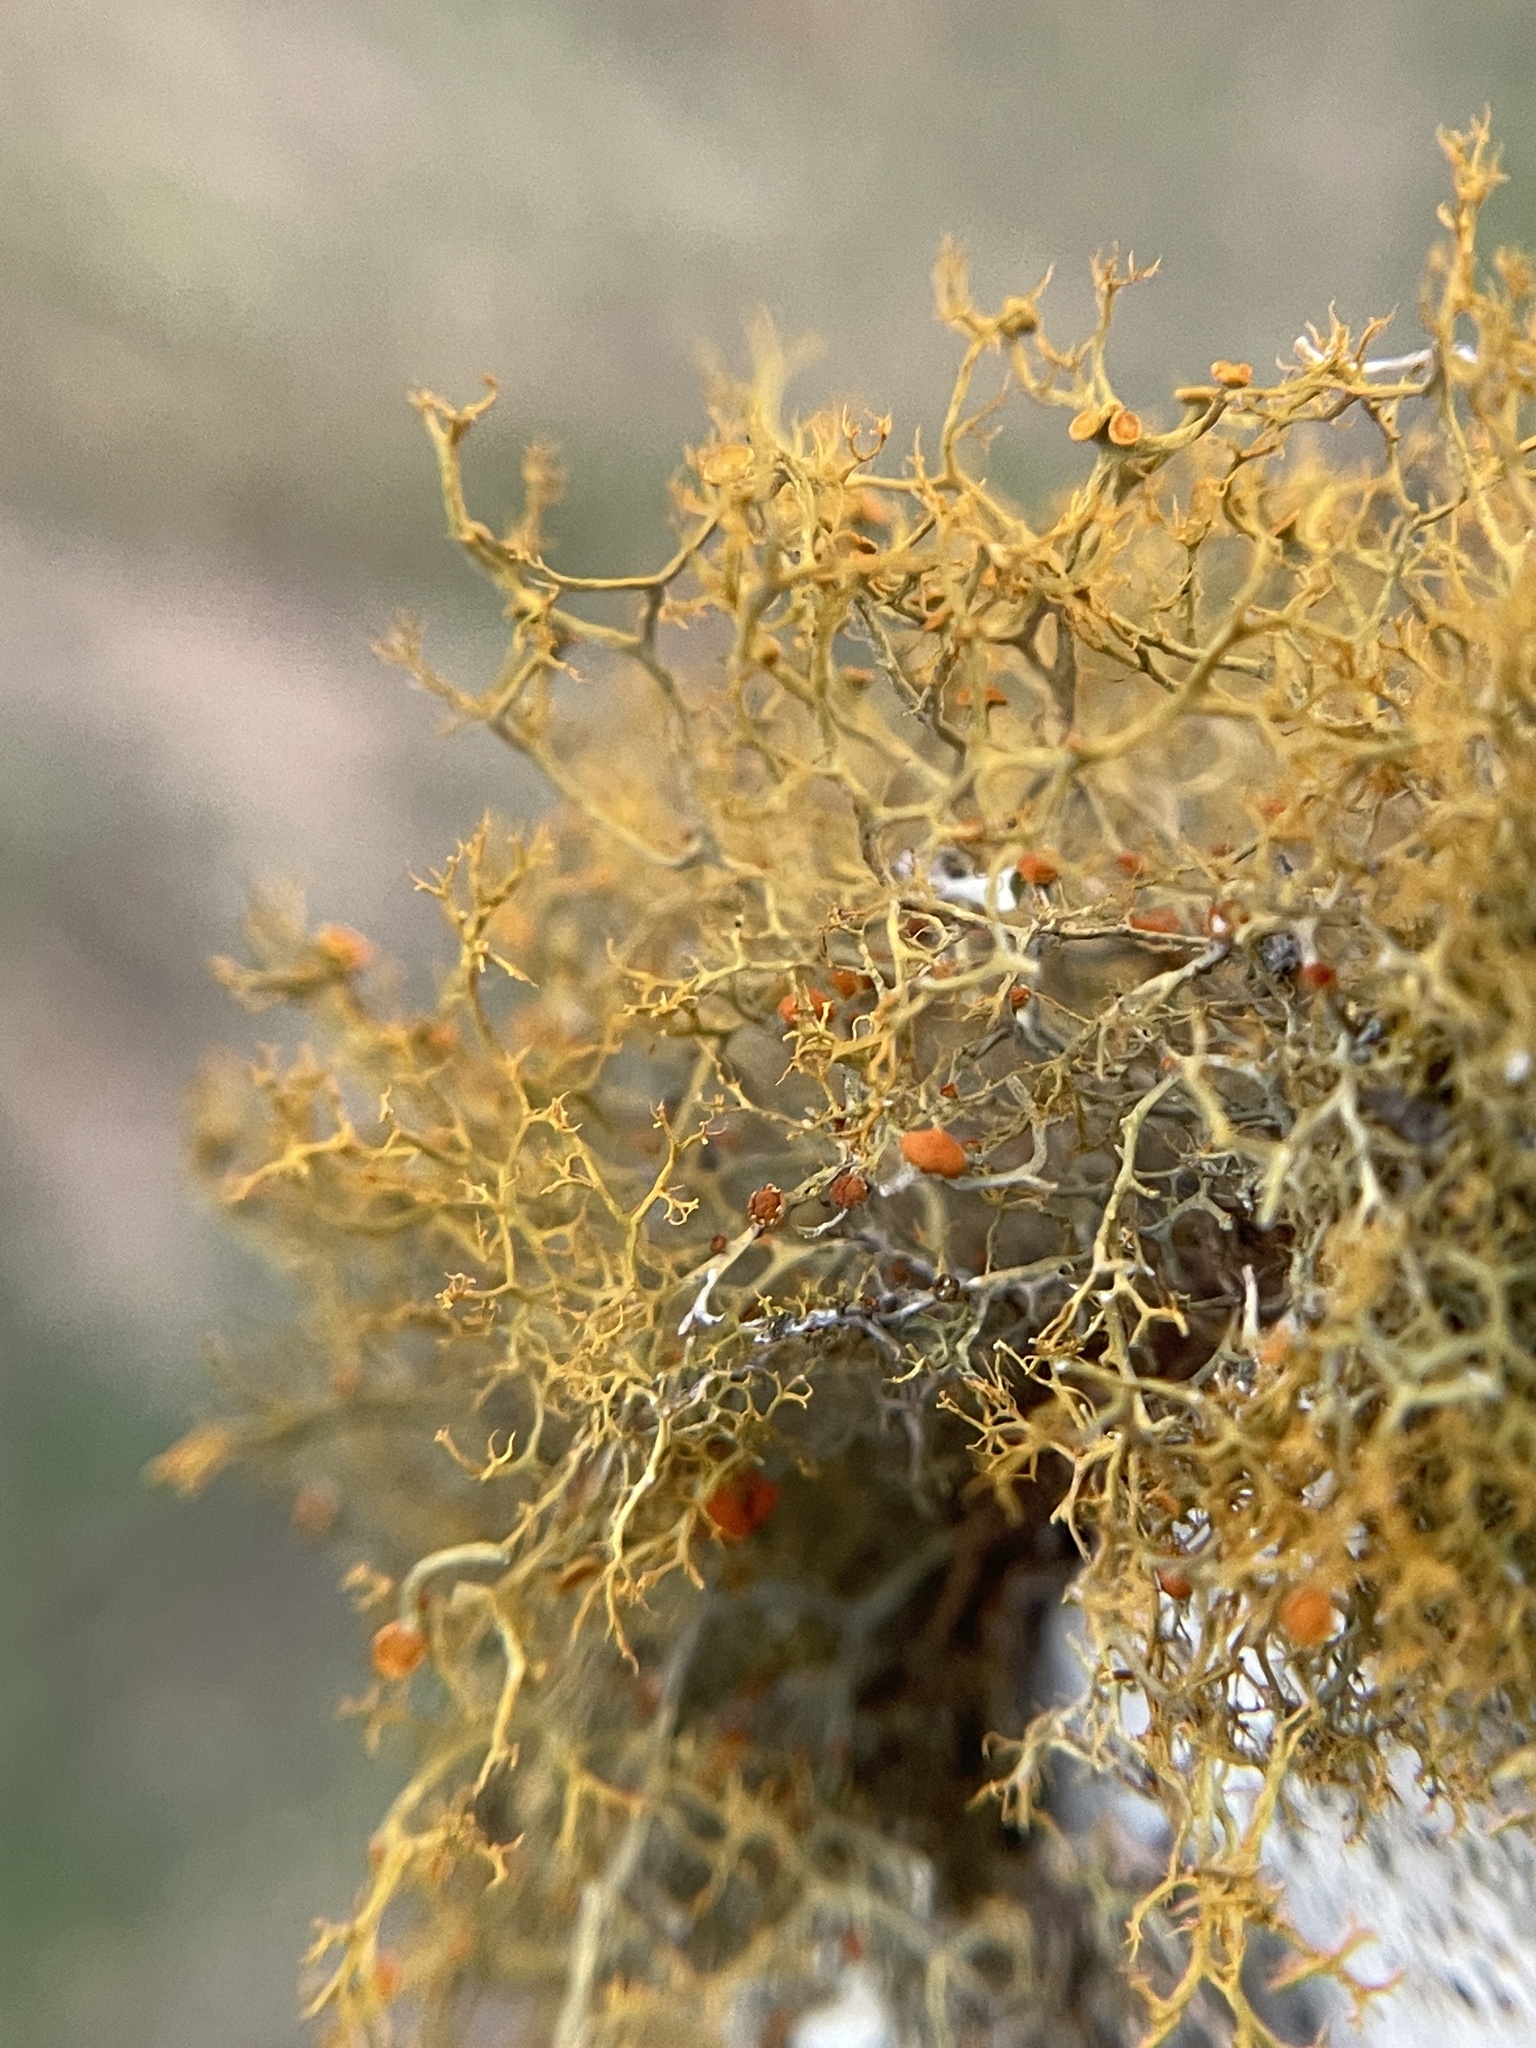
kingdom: Fungi
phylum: Ascomycota
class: Lecanoromycetes
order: Teloschistales
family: Teloschistaceae
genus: Teloschistes
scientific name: Teloschistes exilis
